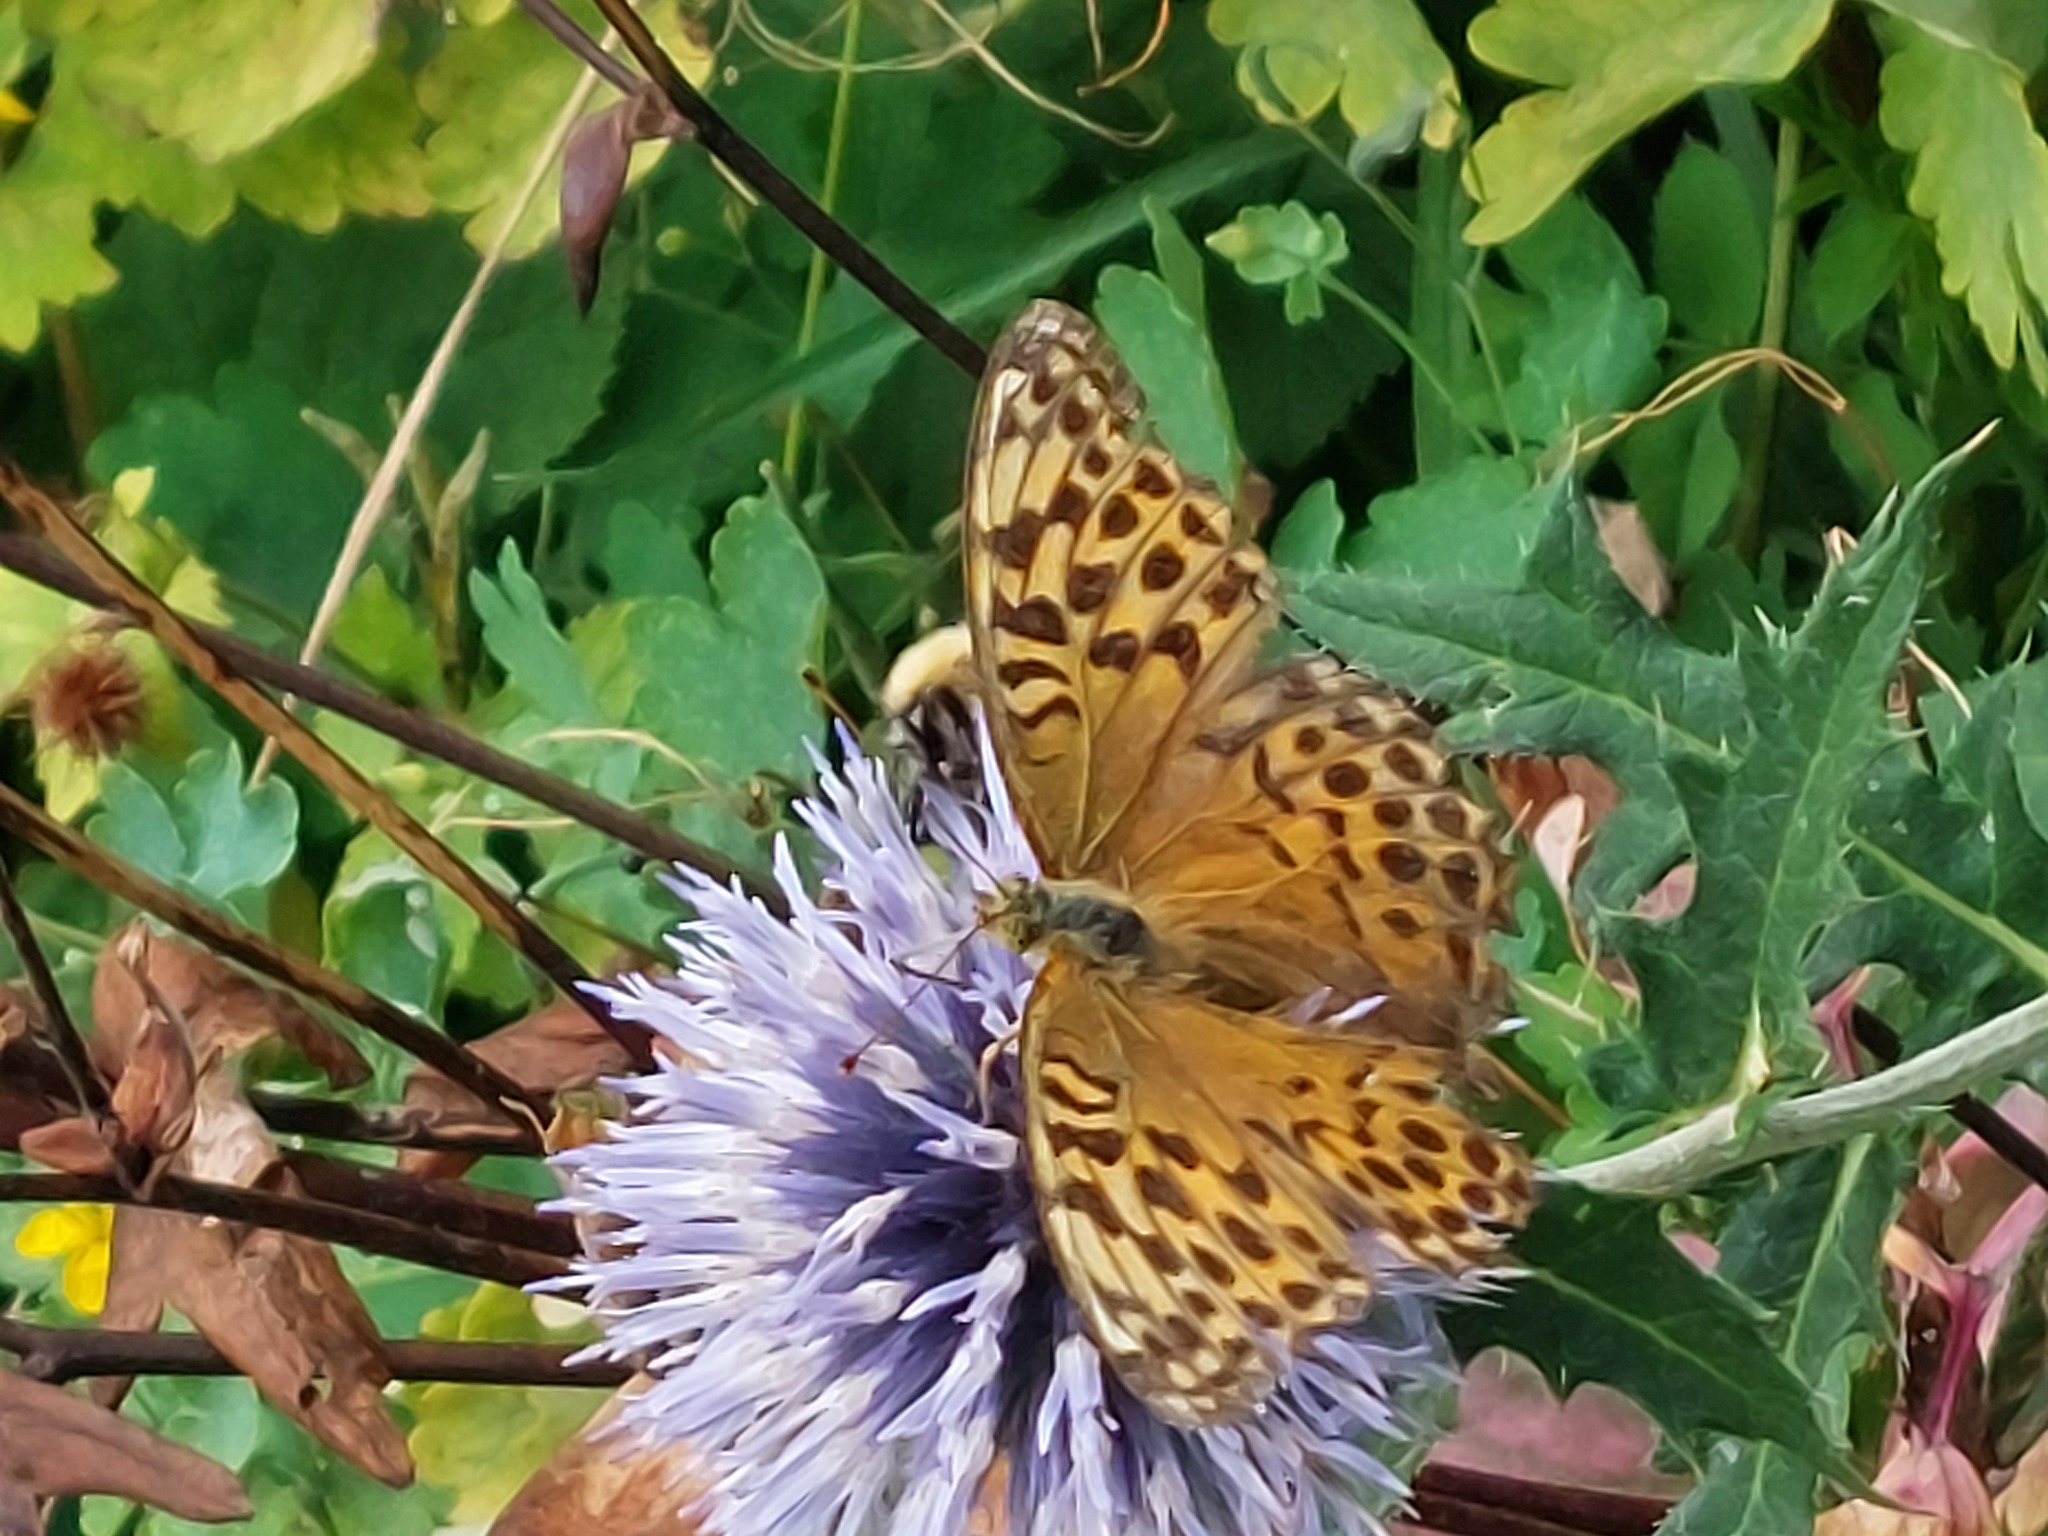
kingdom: Animalia
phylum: Arthropoda
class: Insecta
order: Lepidoptera
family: Nymphalidae
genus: Argynnis
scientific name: Argynnis paphia
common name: Silver-washed fritillary
